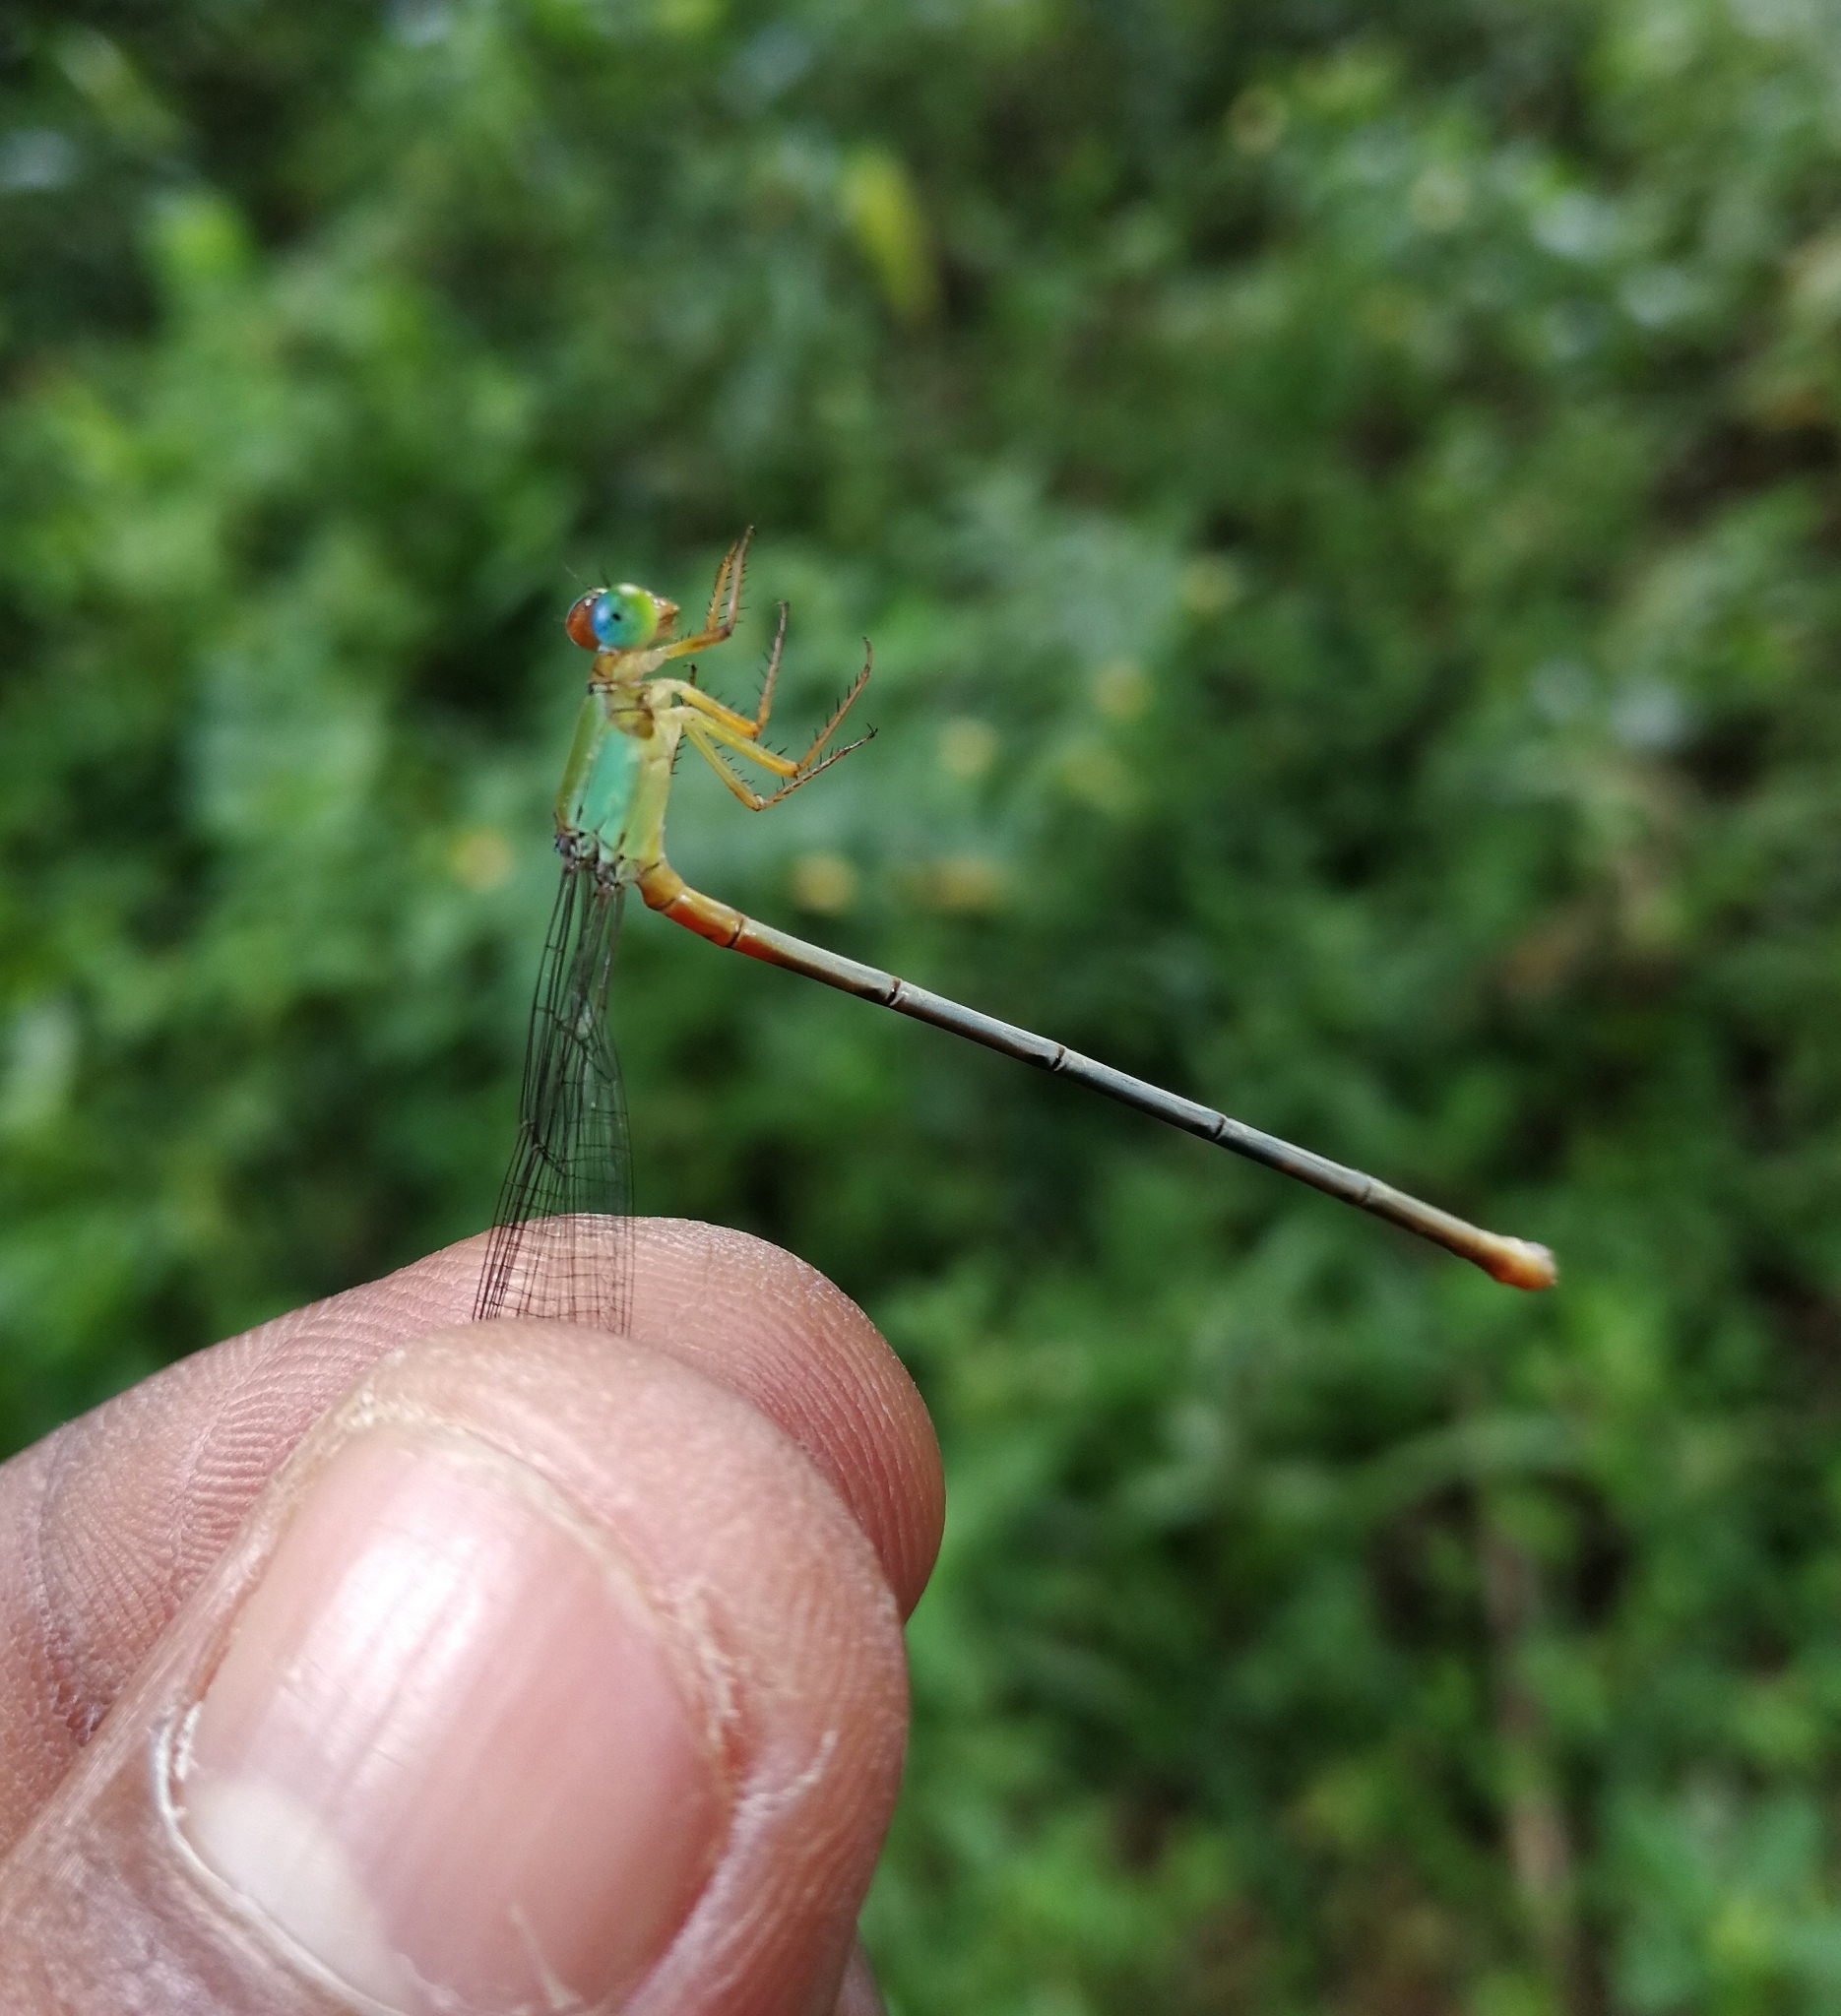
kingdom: Animalia
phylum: Arthropoda
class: Insecta
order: Odonata
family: Coenagrionidae
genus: Ceriagrion
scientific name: Ceriagrion cerinorubellum
